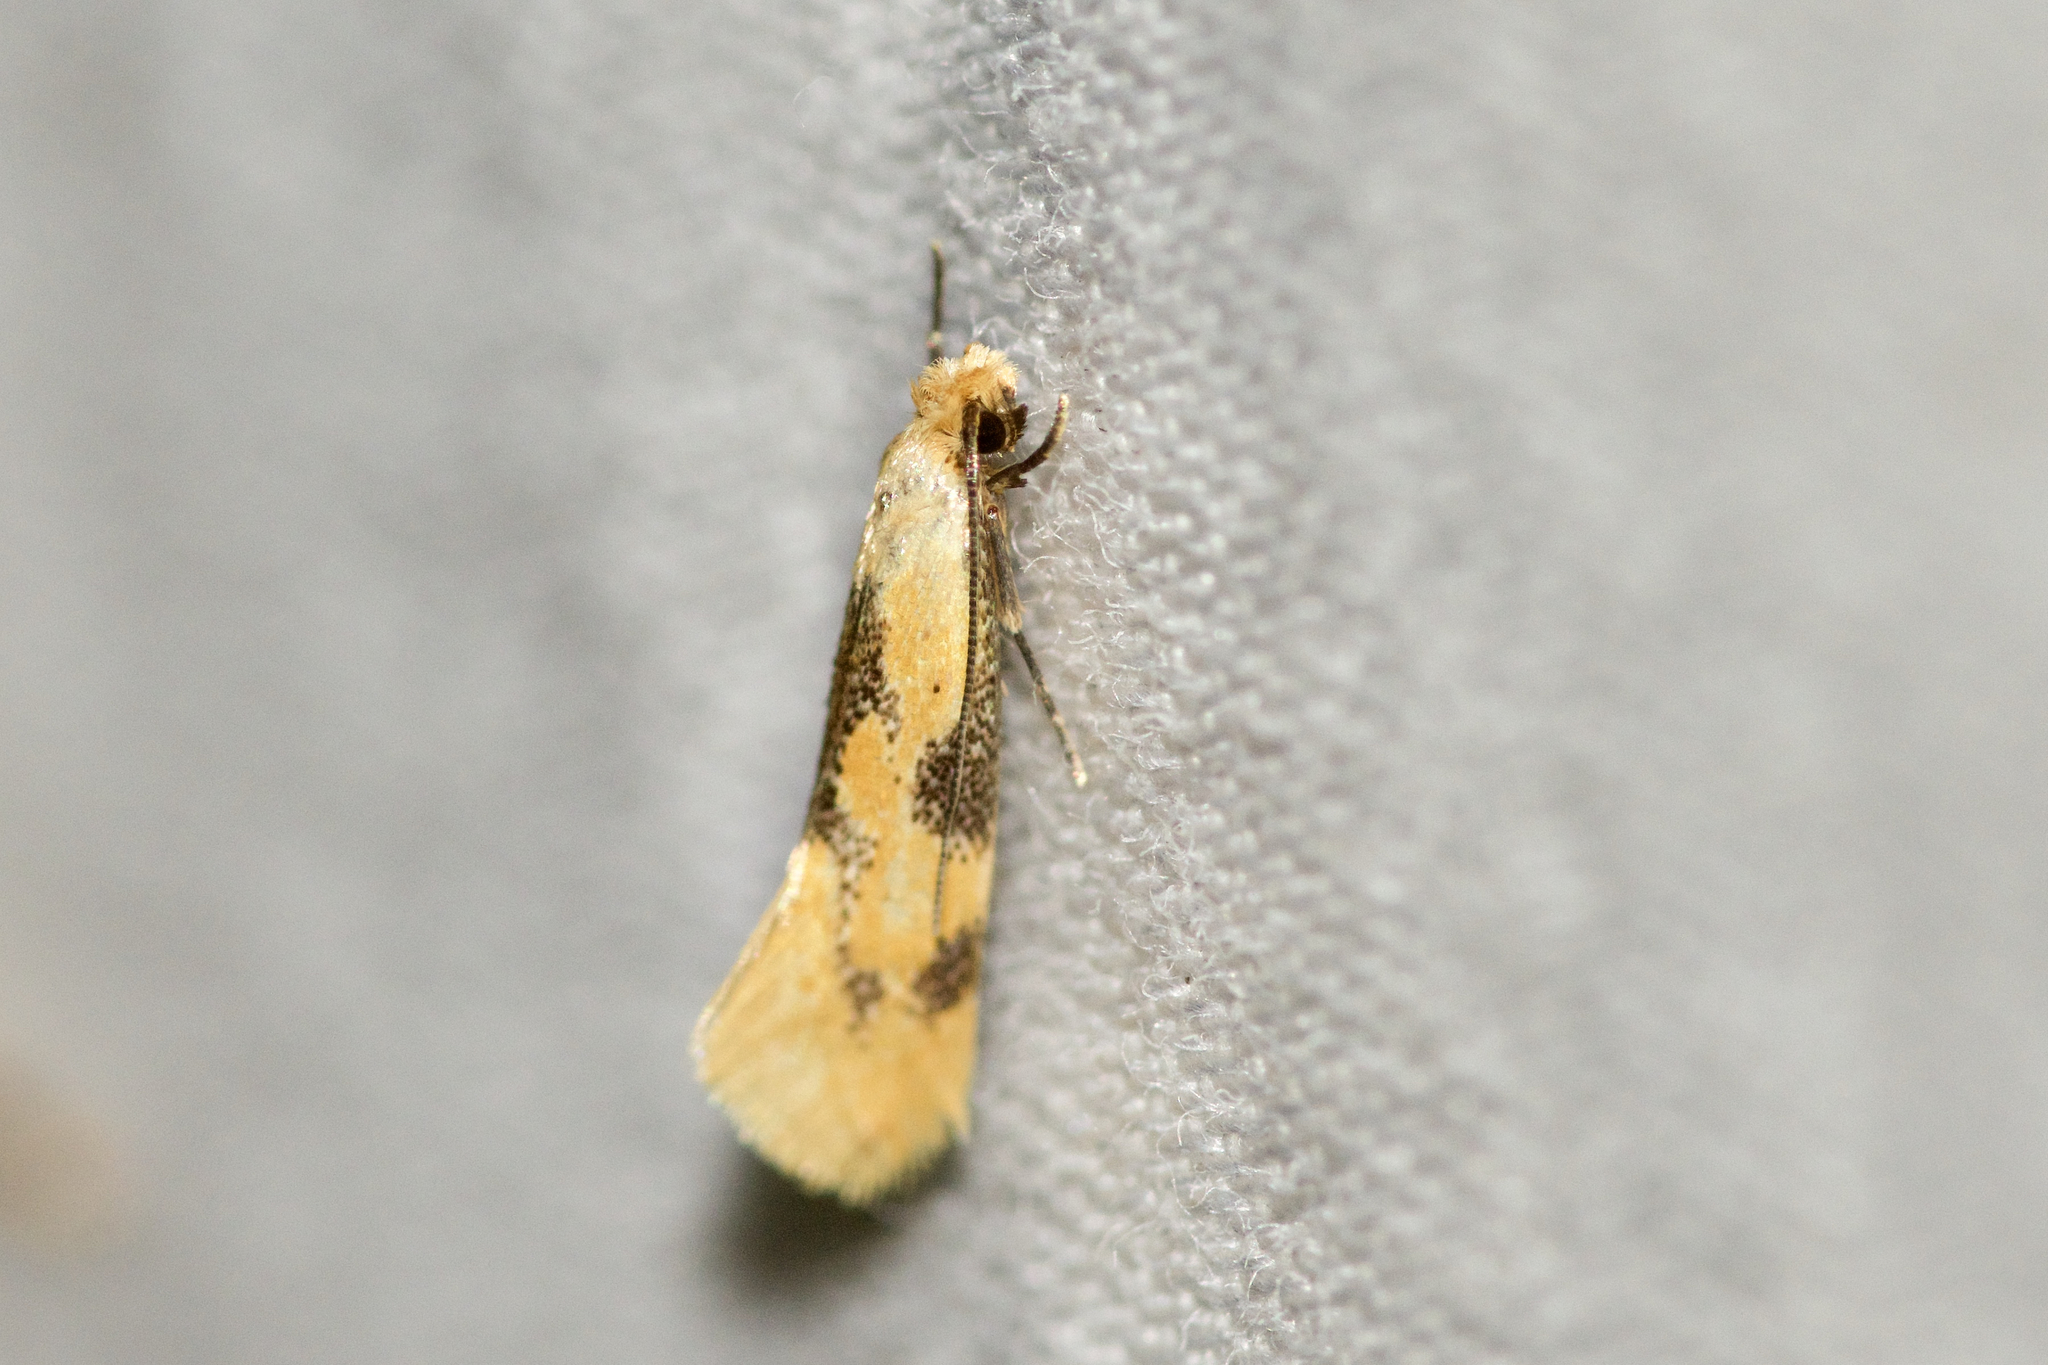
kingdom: Animalia
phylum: Arthropoda
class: Insecta
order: Lepidoptera
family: Meessiidae
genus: Hybroma
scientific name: Hybroma servulella
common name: Yellow wave moth
